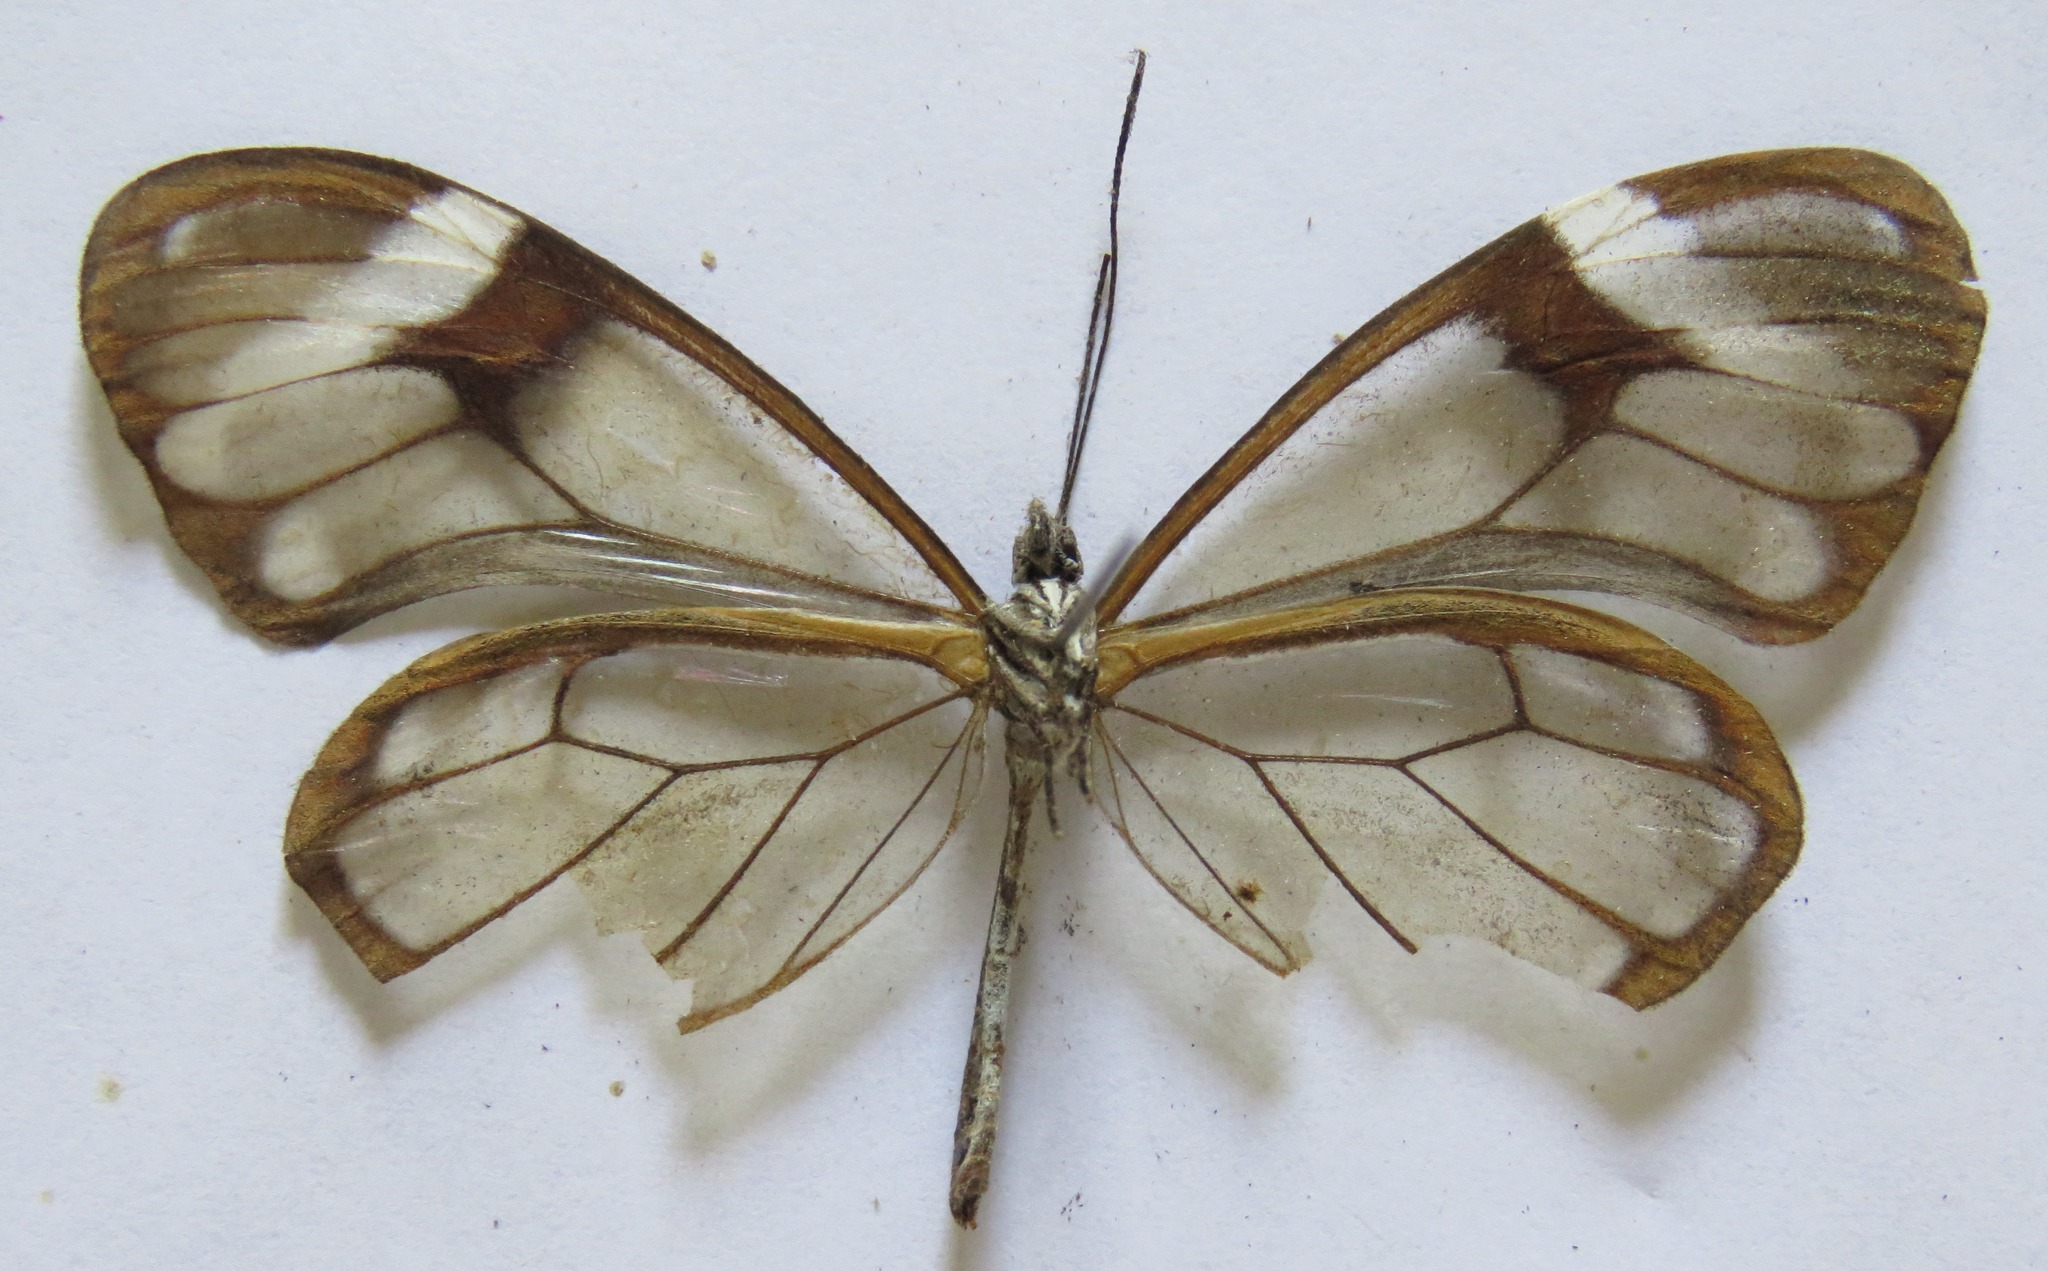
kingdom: Animalia
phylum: Arthropoda
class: Insecta
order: Lepidoptera
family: Nymphalidae
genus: Godyris
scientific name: Godyris nero
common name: Nero clearwing
